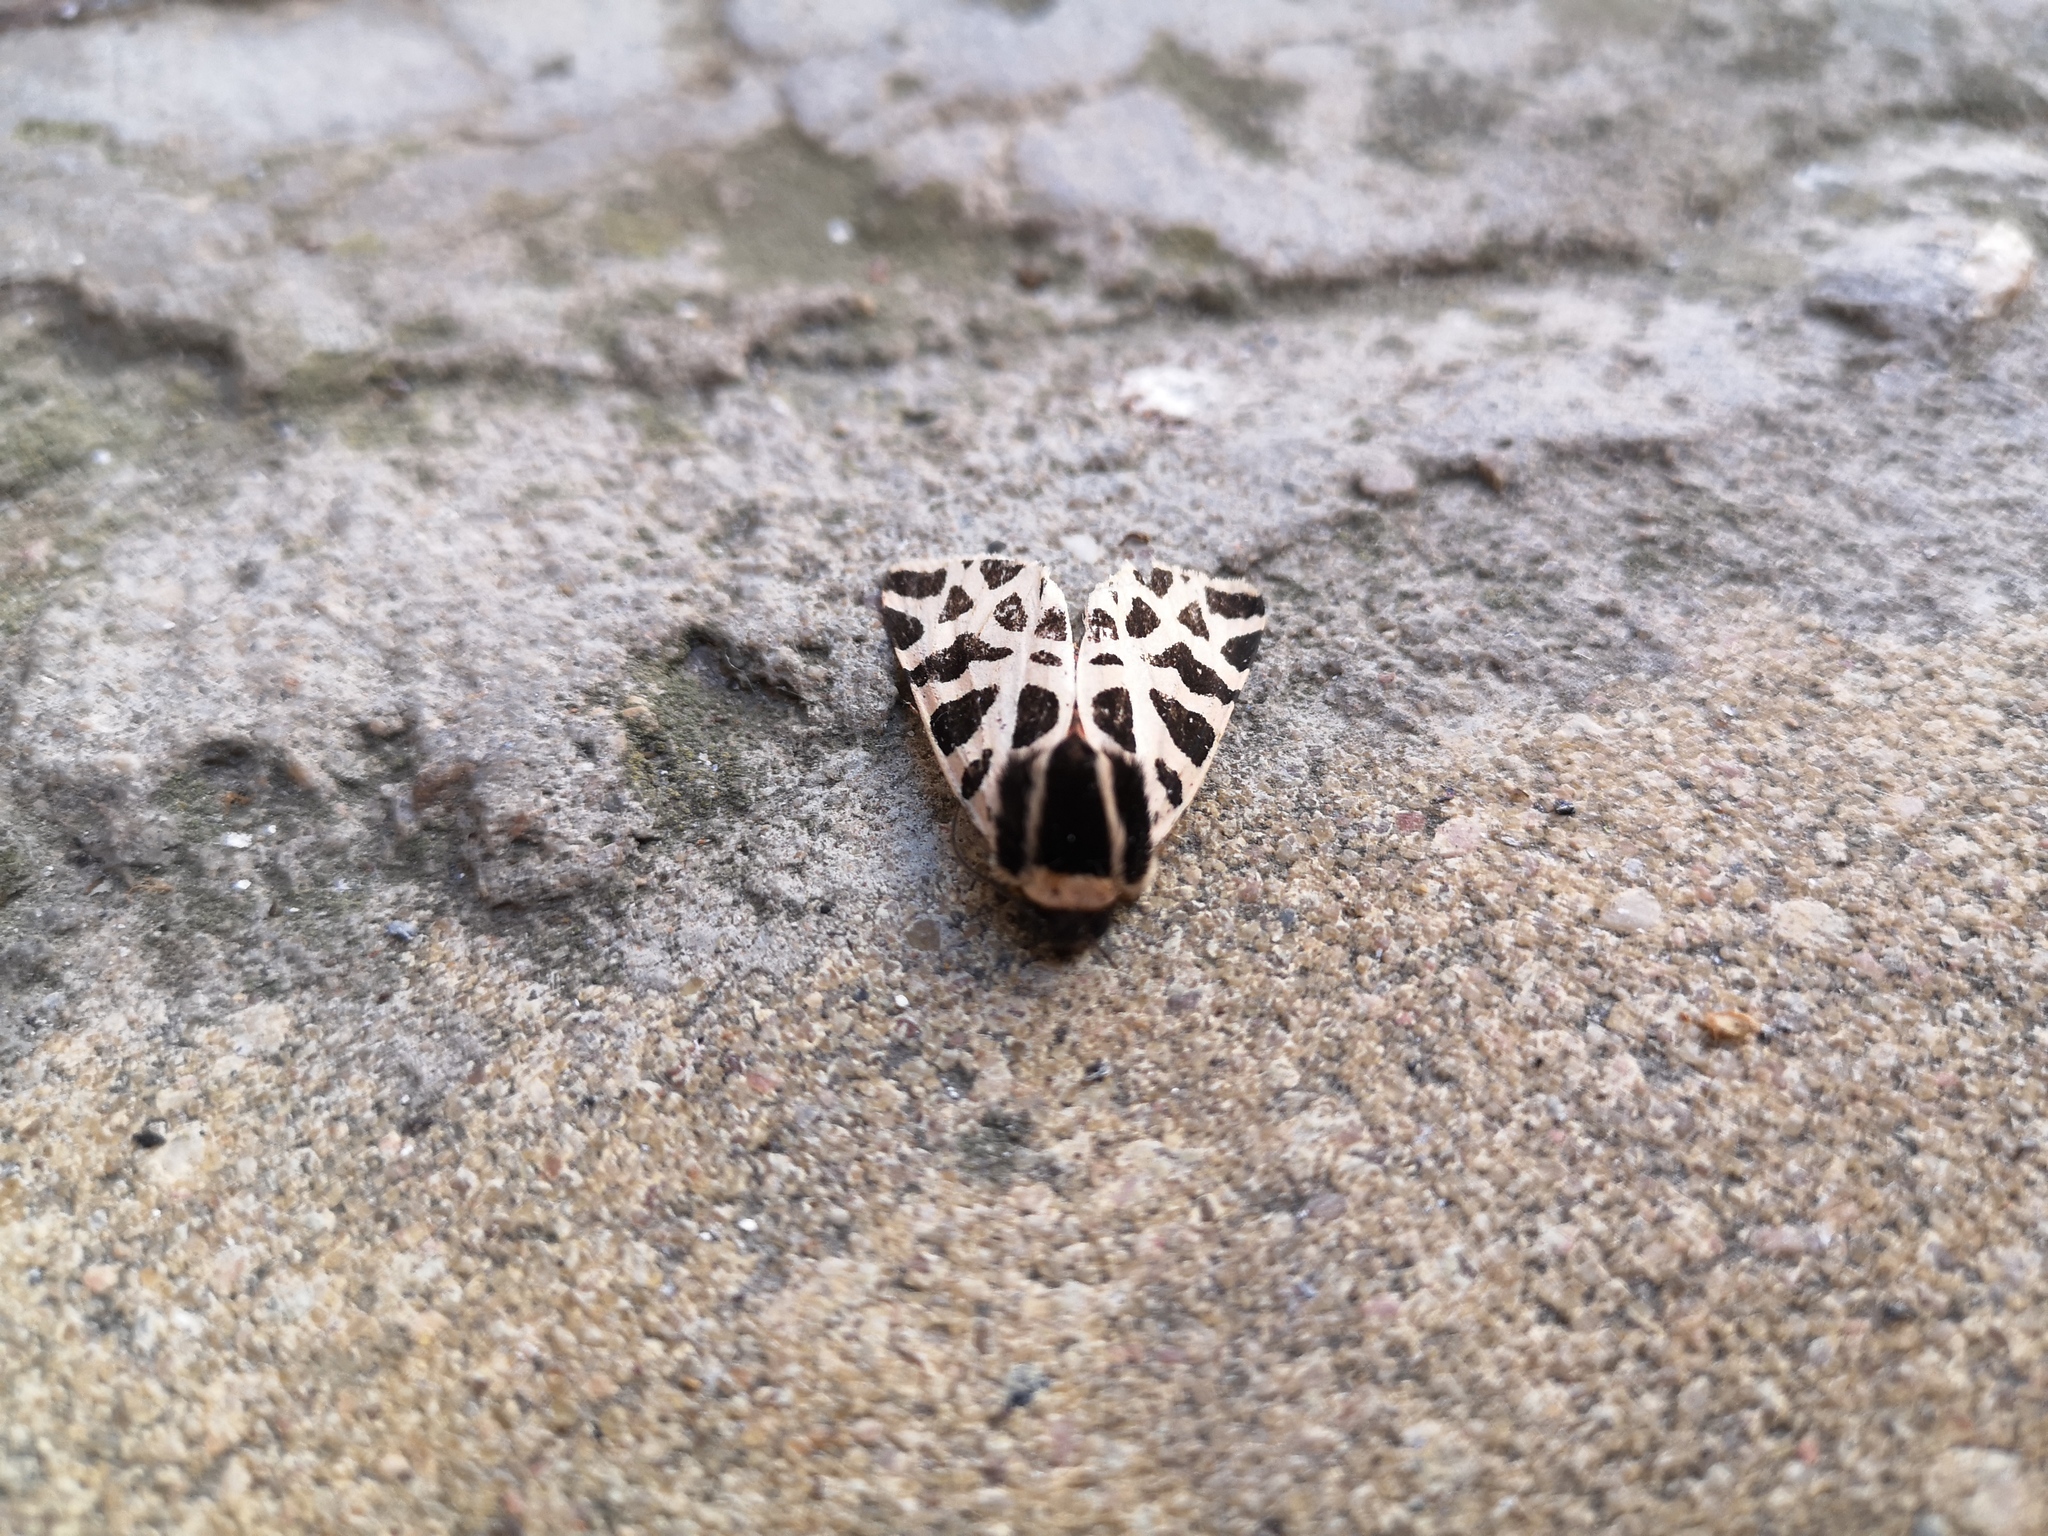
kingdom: Animalia
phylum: Arthropoda
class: Insecta
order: Lepidoptera
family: Erebidae
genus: Cymbalophora
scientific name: Cymbalophora pudica
